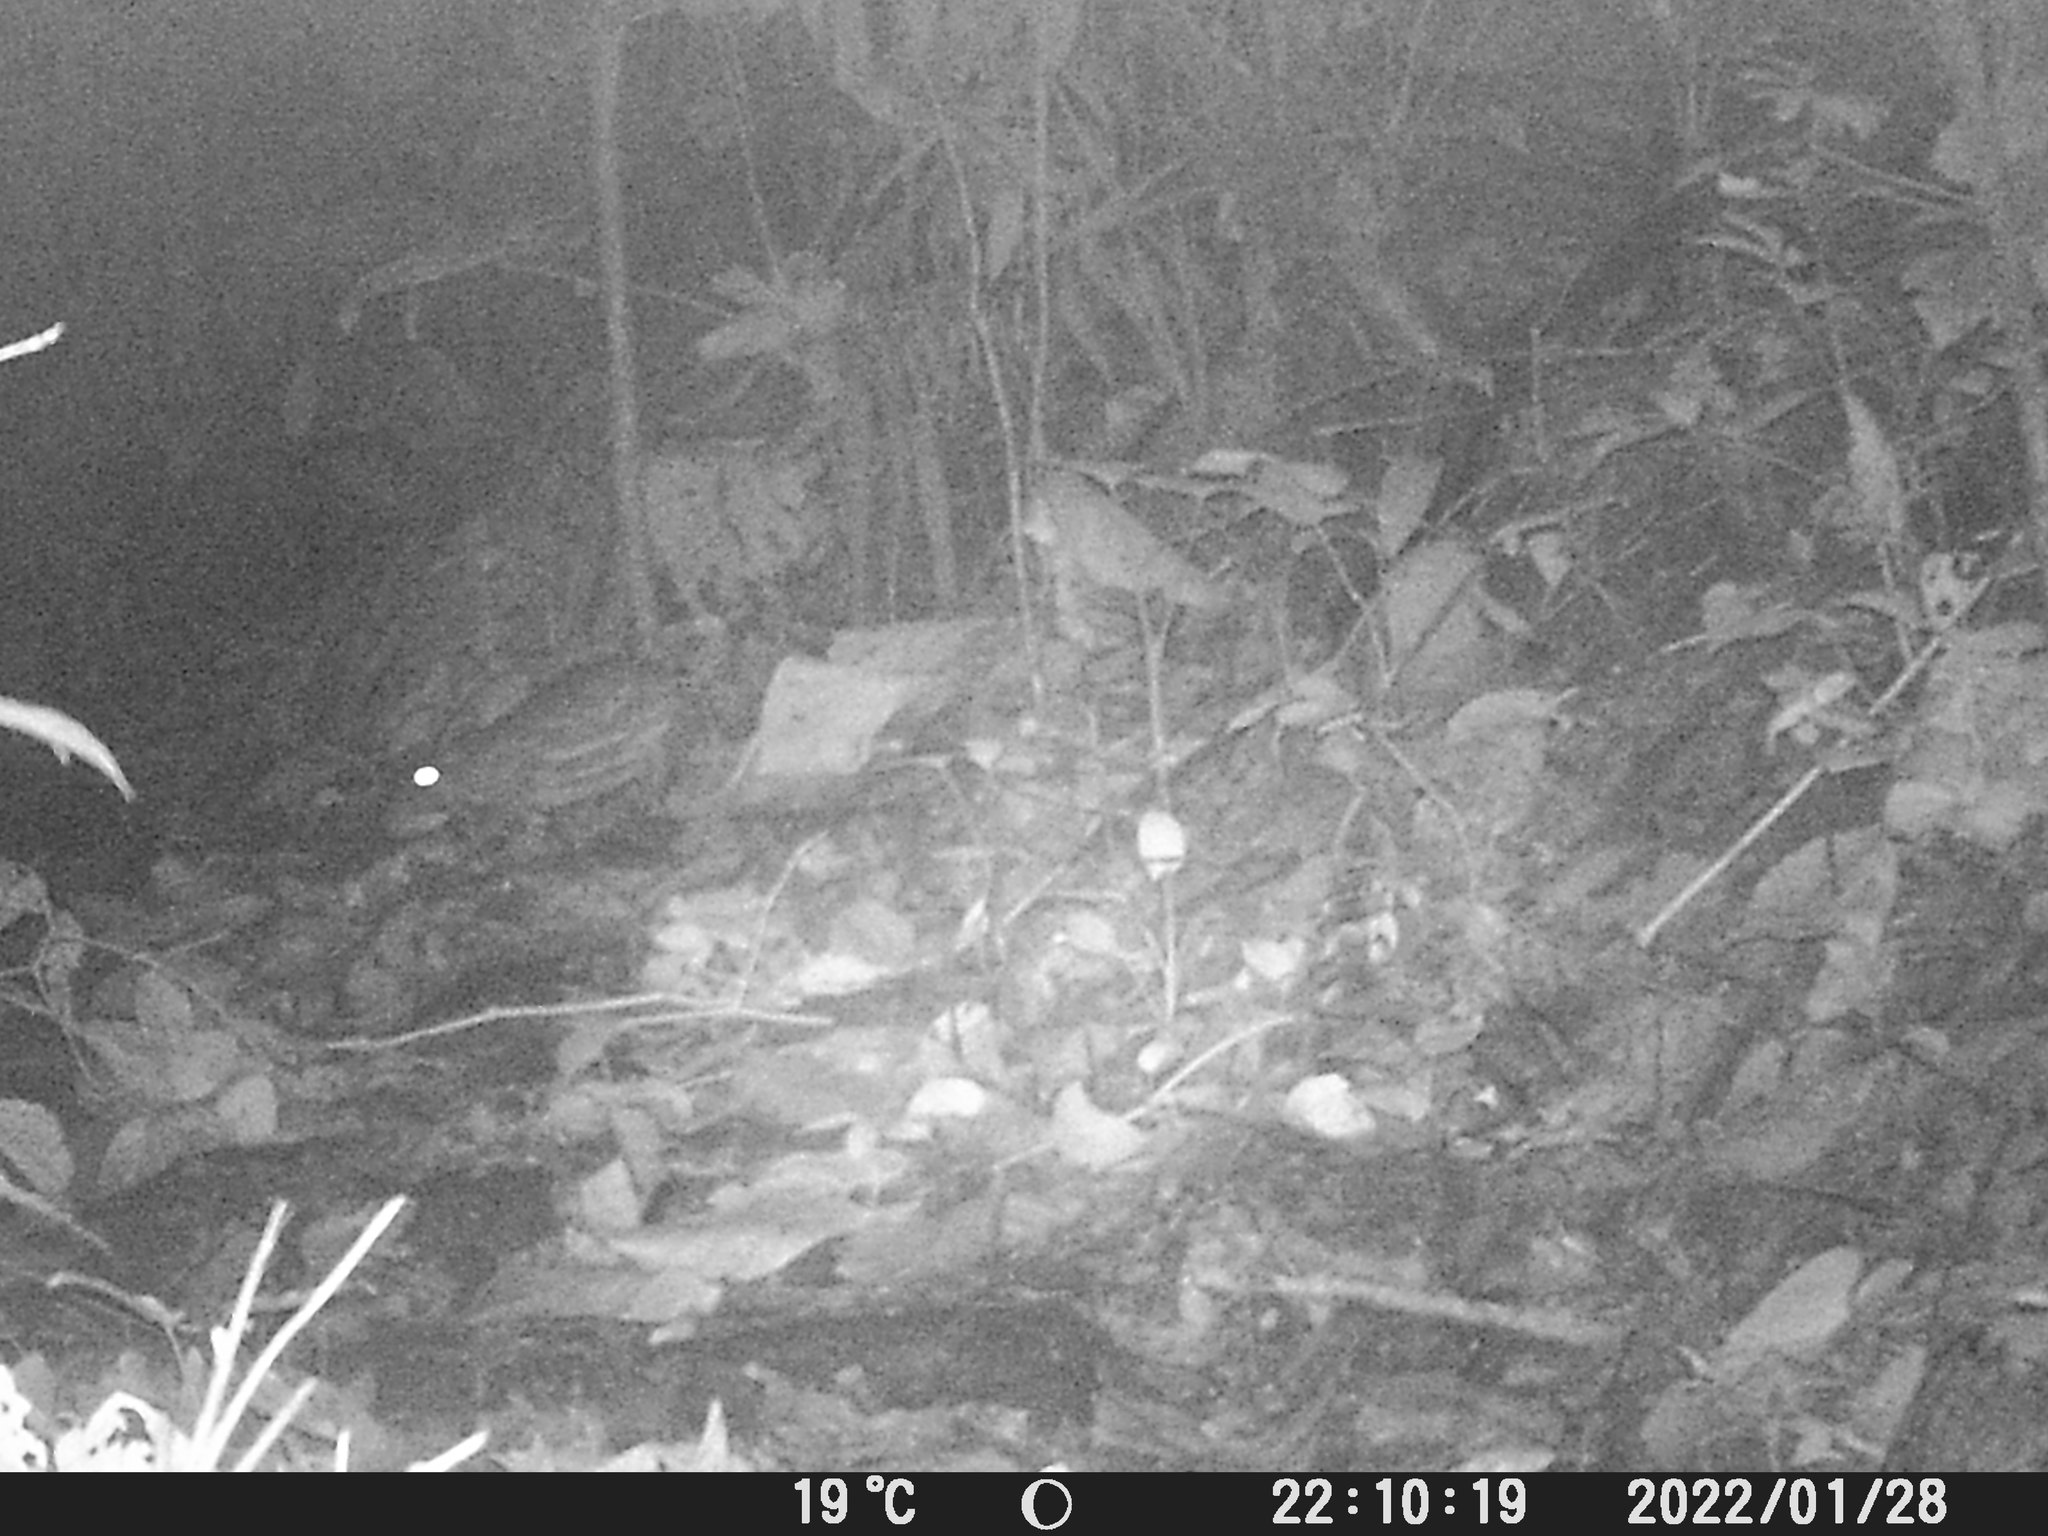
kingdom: Animalia
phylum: Chordata
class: Mammalia
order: Rodentia
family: Cuniculidae
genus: Cuniculus
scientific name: Cuniculus paca
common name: Lowland paca
